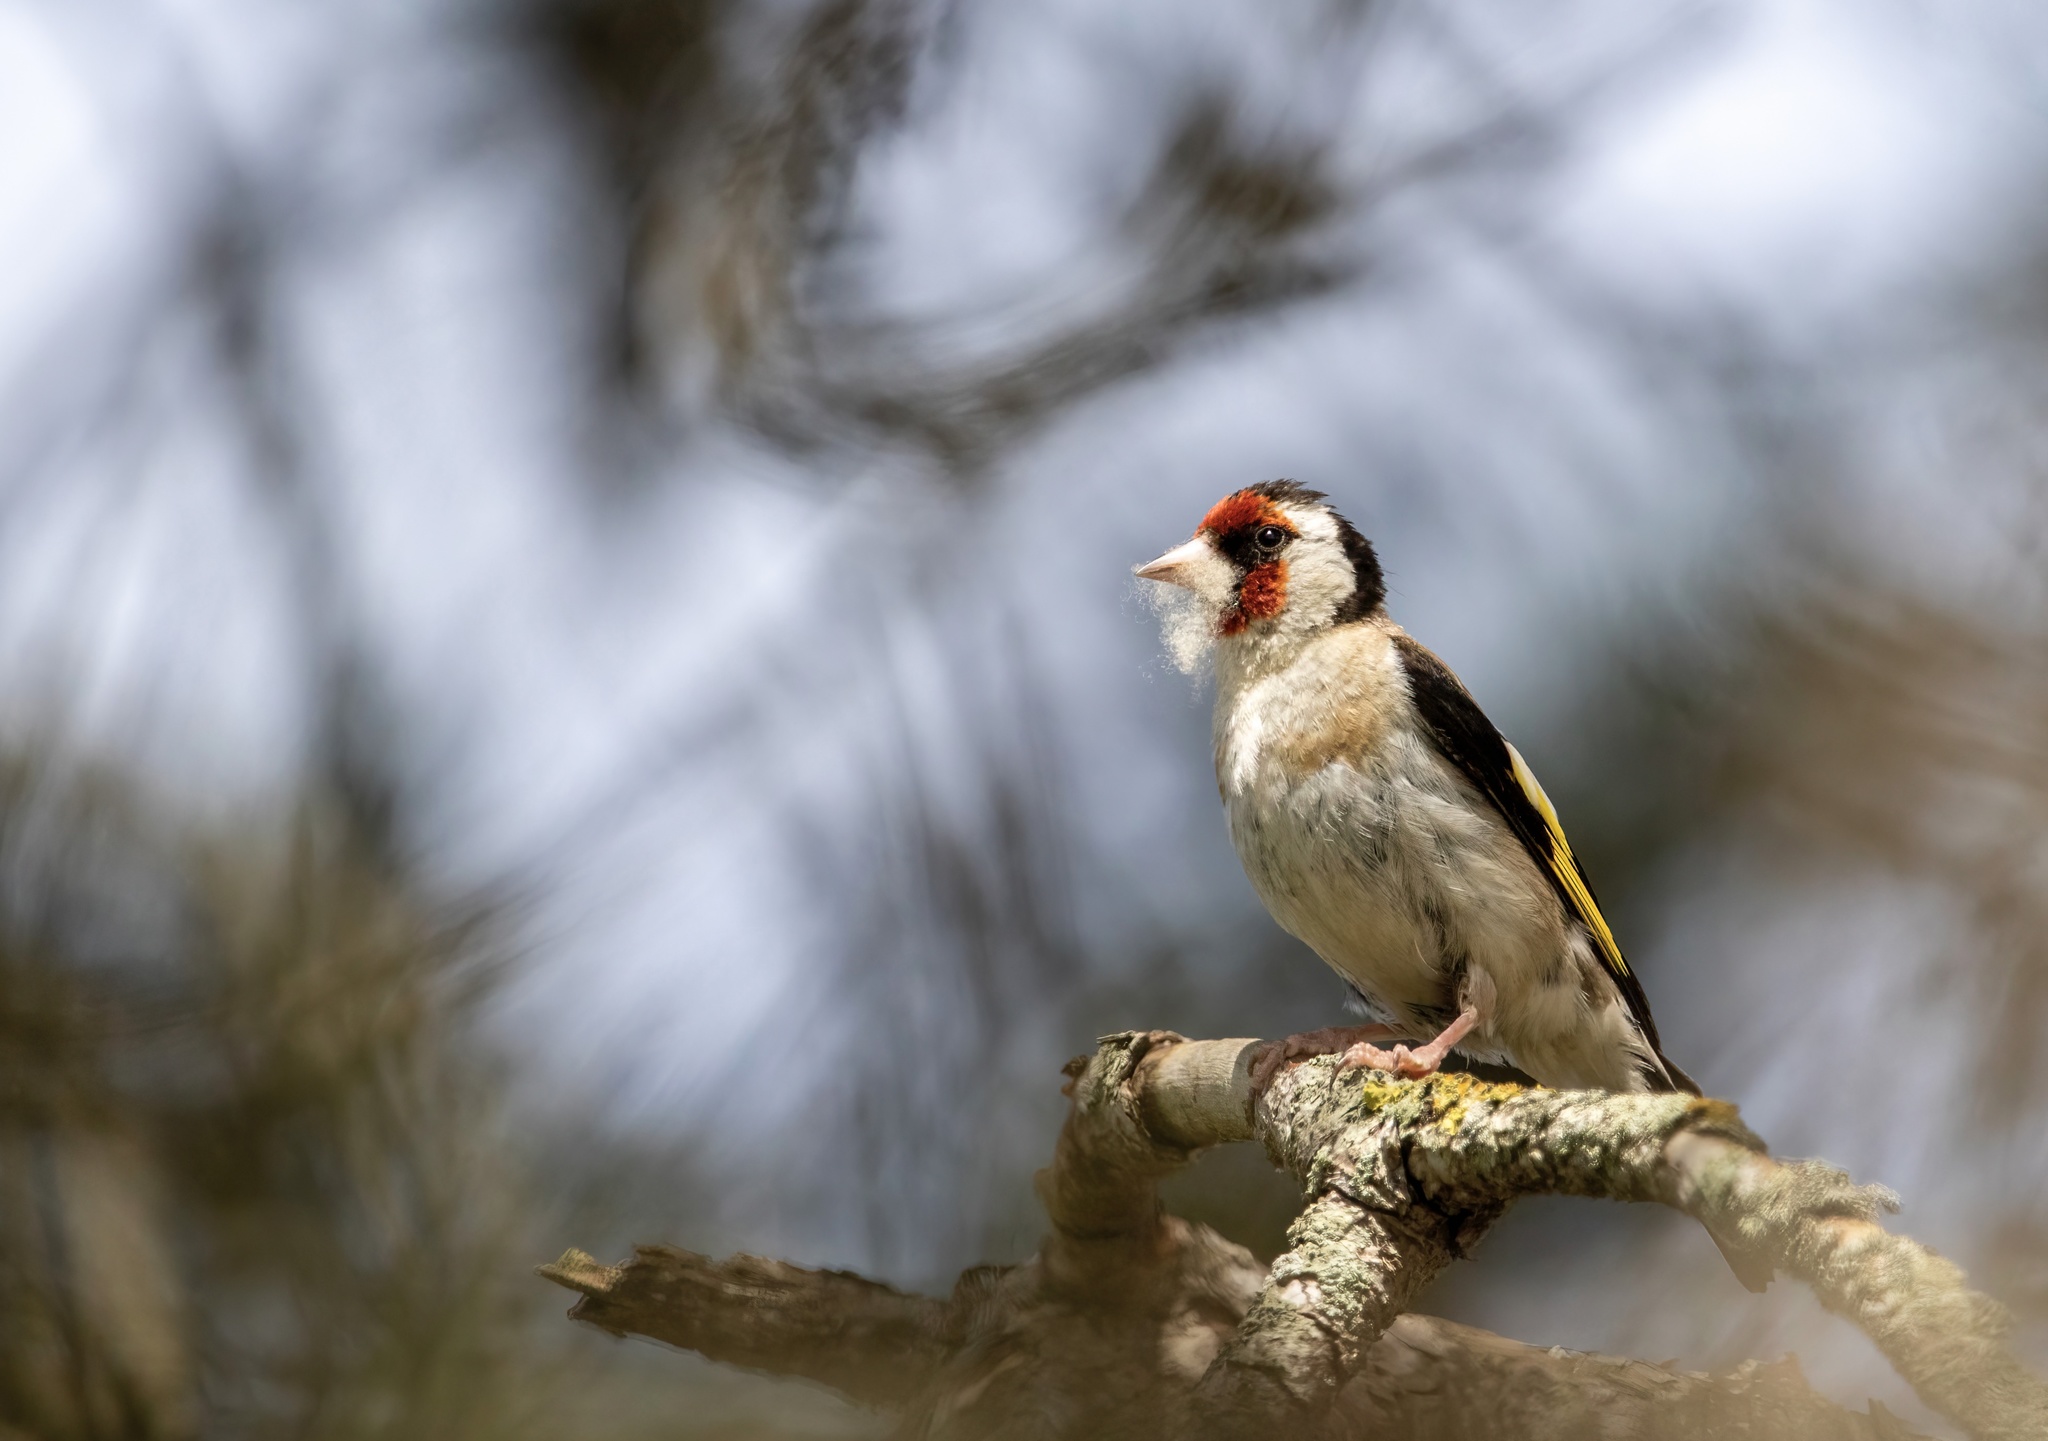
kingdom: Animalia
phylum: Chordata
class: Aves
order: Passeriformes
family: Fringillidae
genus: Carduelis
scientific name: Carduelis carduelis
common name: European goldfinch
